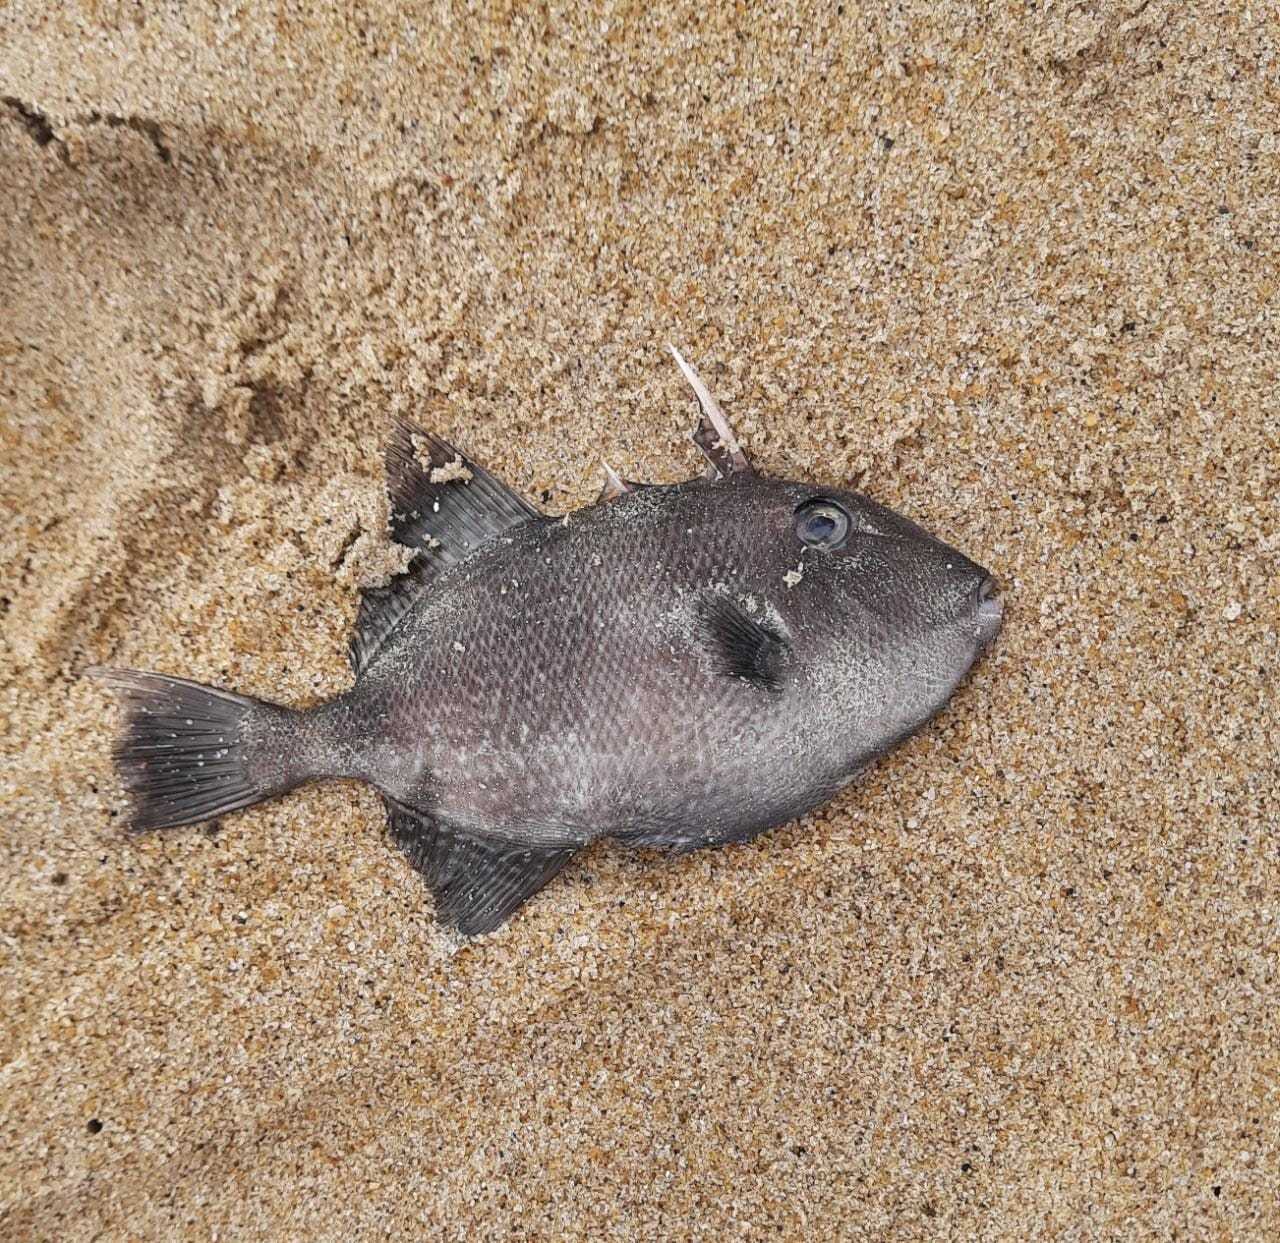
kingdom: Animalia
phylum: Chordata
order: Tetraodontiformes
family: Balistidae
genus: Balistes
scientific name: Balistes capriscus
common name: Grey triggerfish
